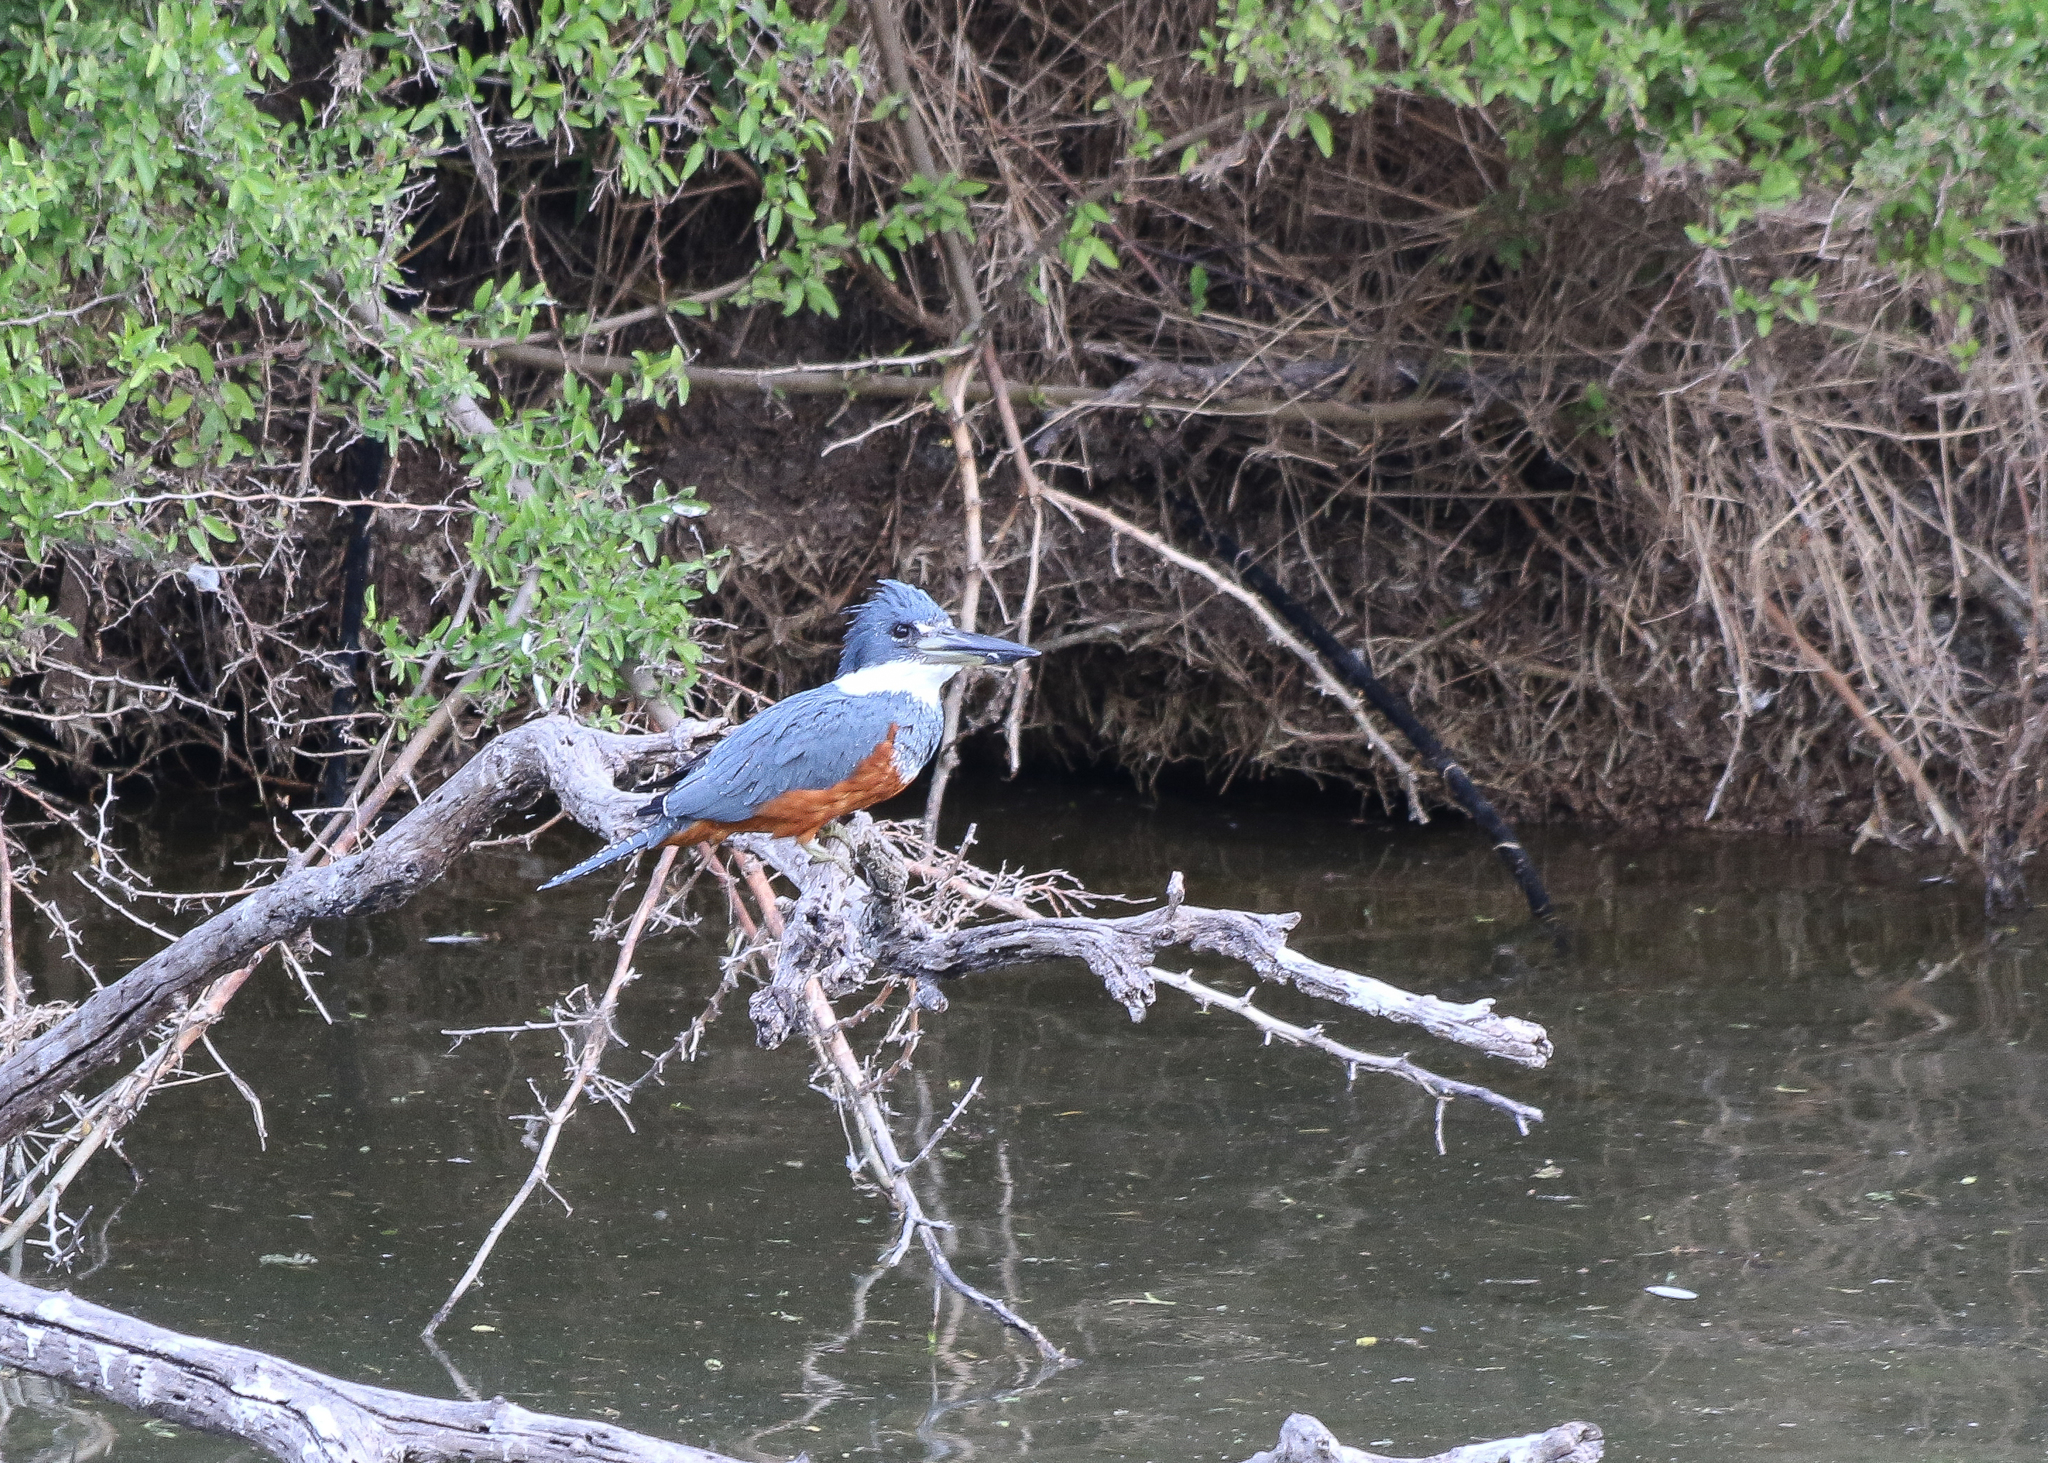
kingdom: Animalia
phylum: Chordata
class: Aves
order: Coraciiformes
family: Alcedinidae
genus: Megaceryle
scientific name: Megaceryle torquata
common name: Ringed kingfisher
